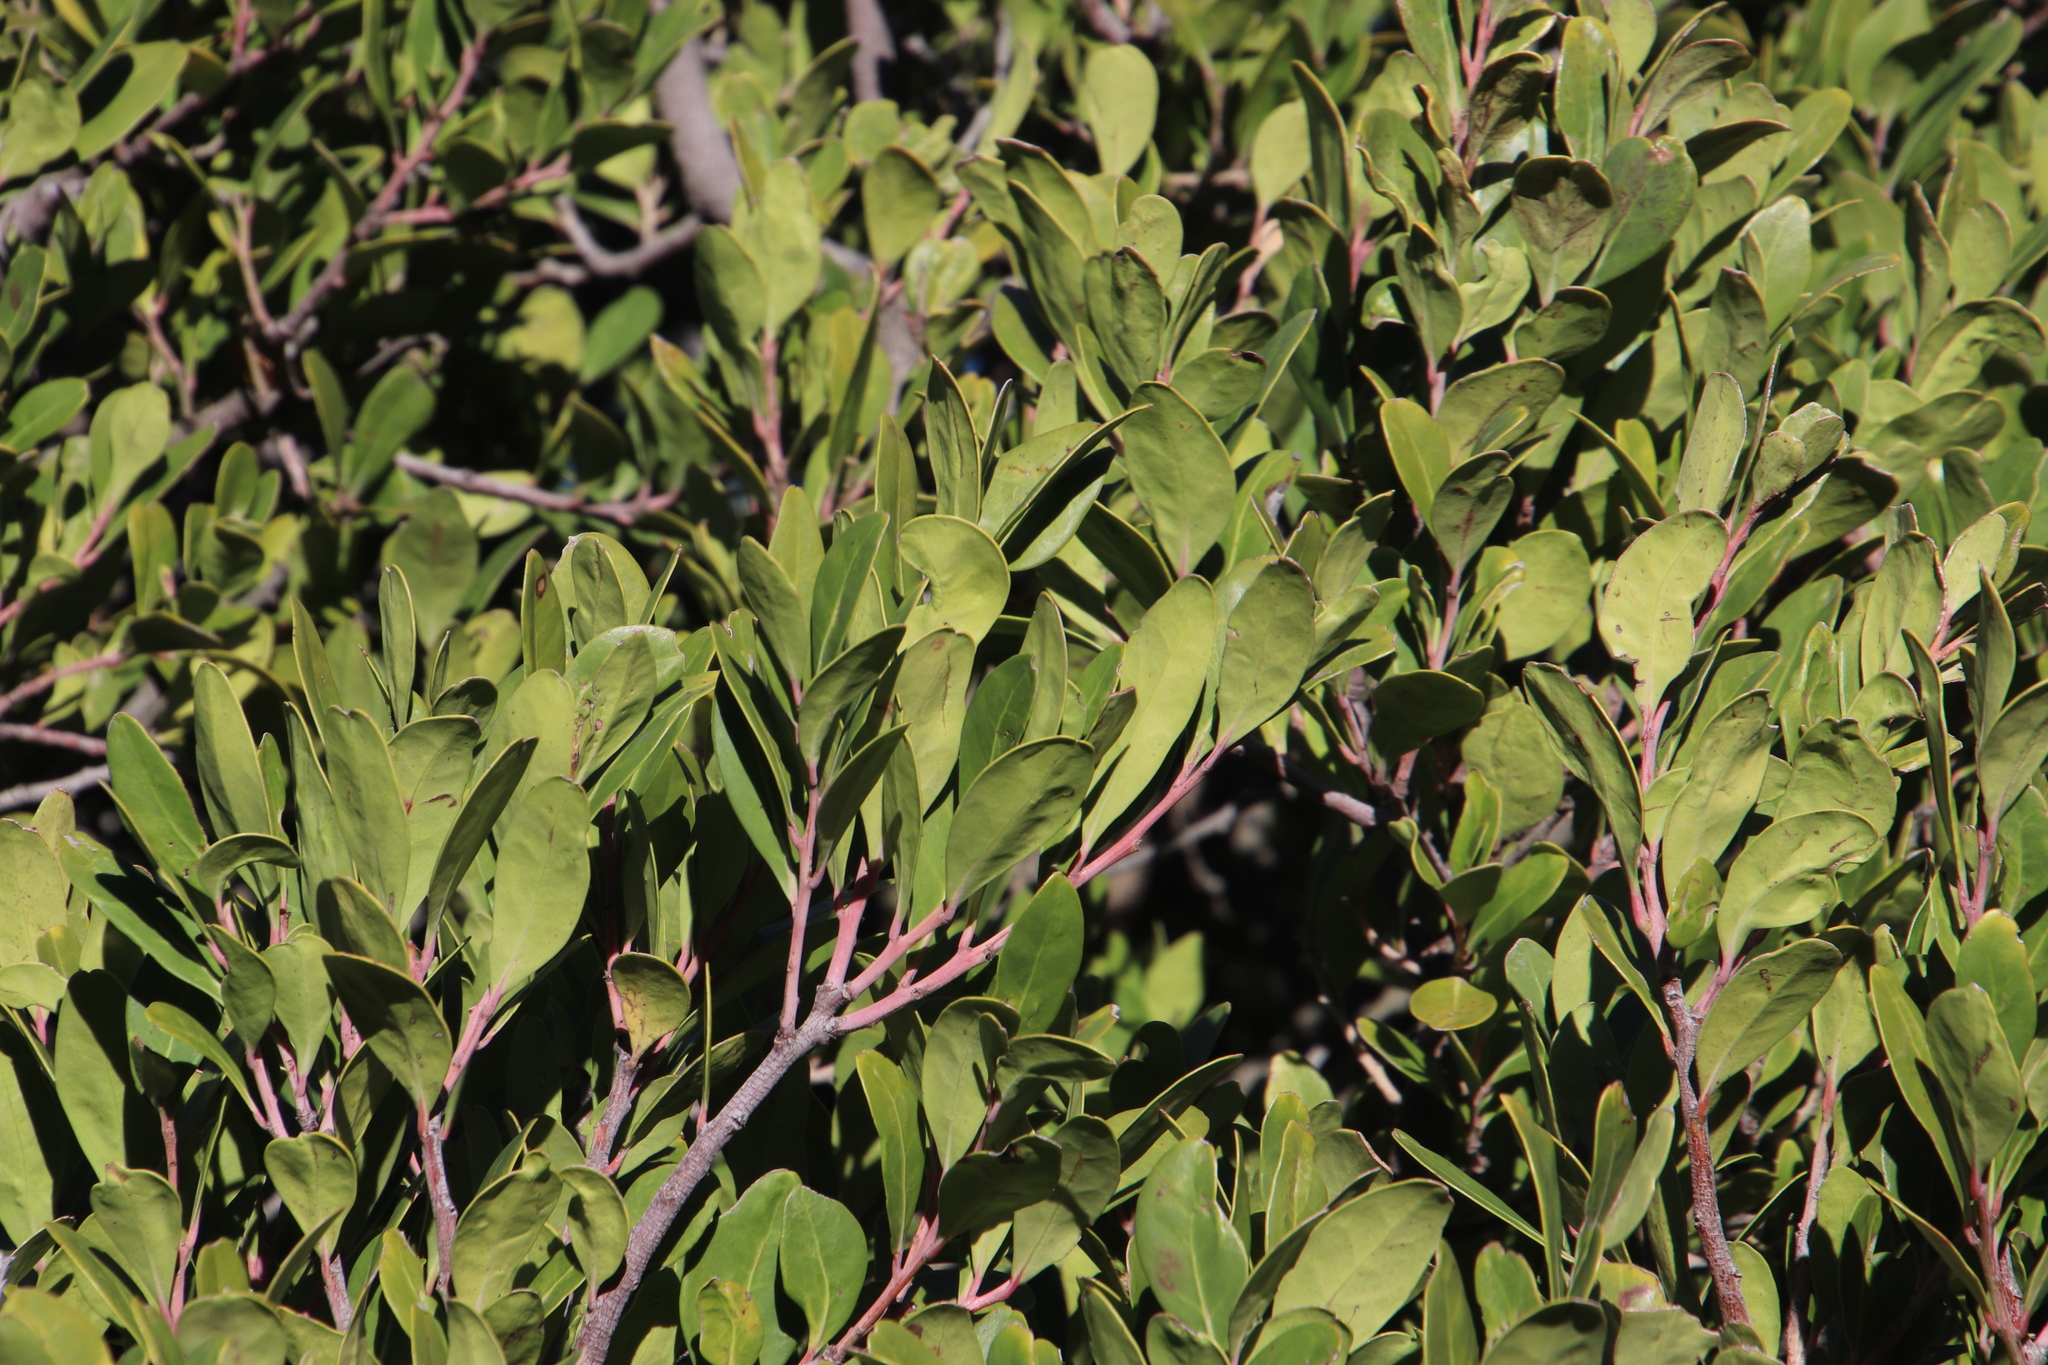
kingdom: Plantae
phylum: Tracheophyta
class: Magnoliopsida
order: Ericales
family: Ebenaceae
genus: Euclea
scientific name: Euclea racemosa
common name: Dune guarri
